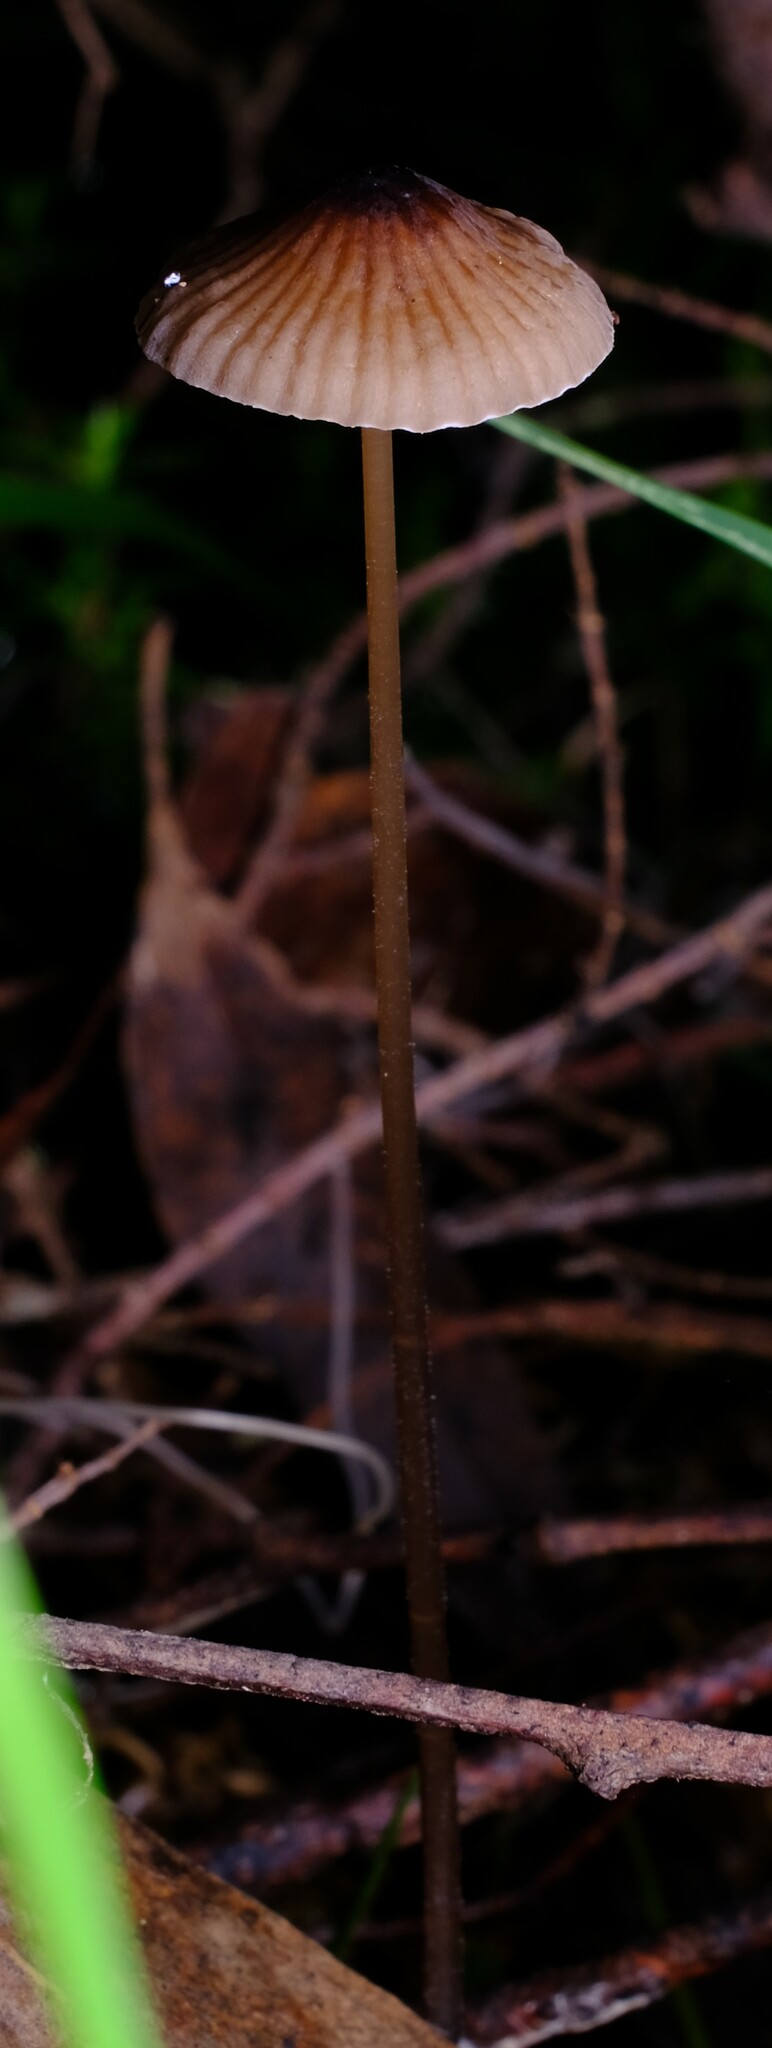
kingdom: Fungi
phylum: Basidiomycota
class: Agaricomycetes
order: Agaricales
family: Mycenaceae
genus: Mycena
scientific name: Mycena cystidiosa
